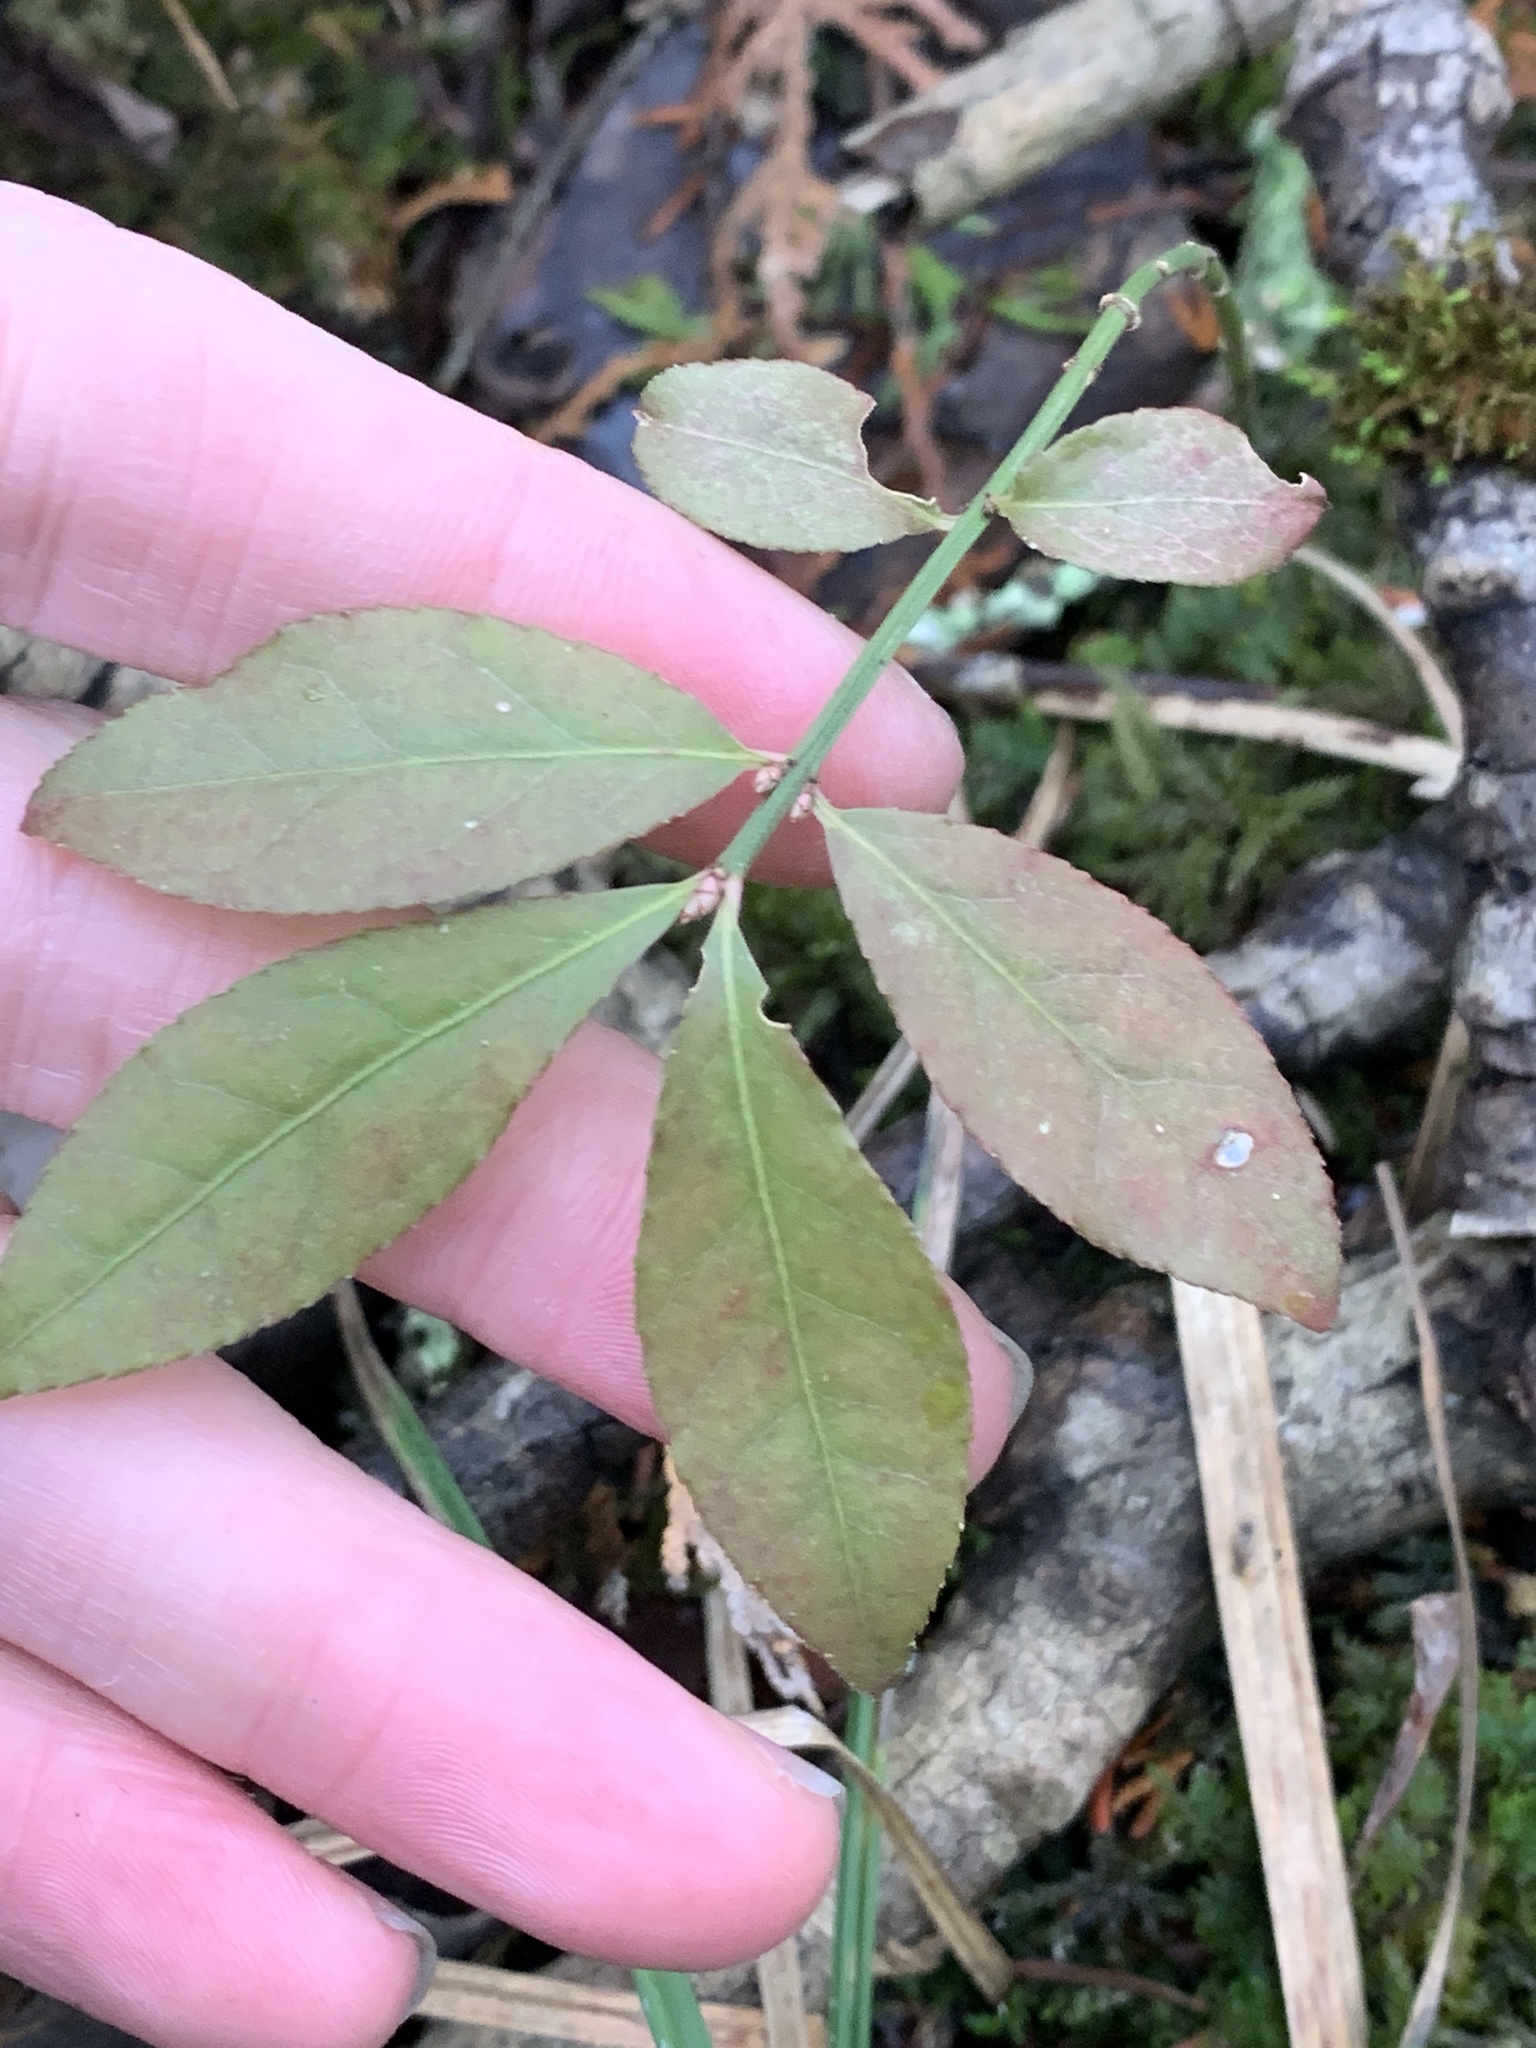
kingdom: Plantae
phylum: Tracheophyta
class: Magnoliopsida
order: Celastrales
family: Celastraceae
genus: Euonymus
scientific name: Euonymus alatus
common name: Winged euonymus
